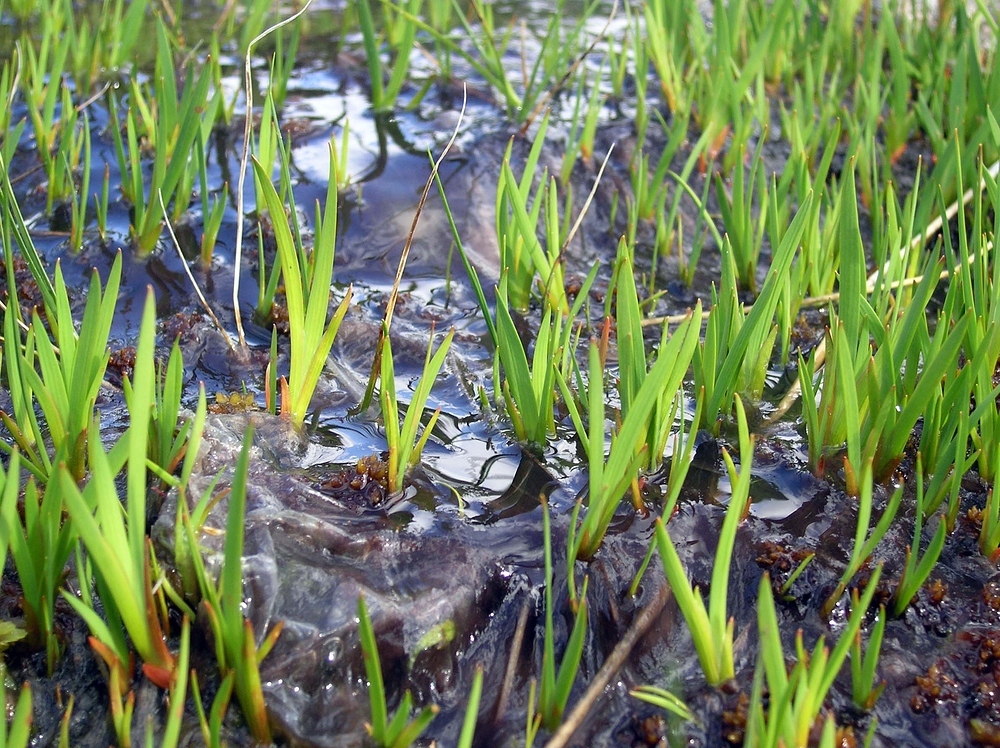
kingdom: Plantae
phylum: Tracheophyta
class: Liliopsida
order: Dioscoreales
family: Nartheciaceae
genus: Narthecium
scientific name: Narthecium ossifragum
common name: Bog asphodel
